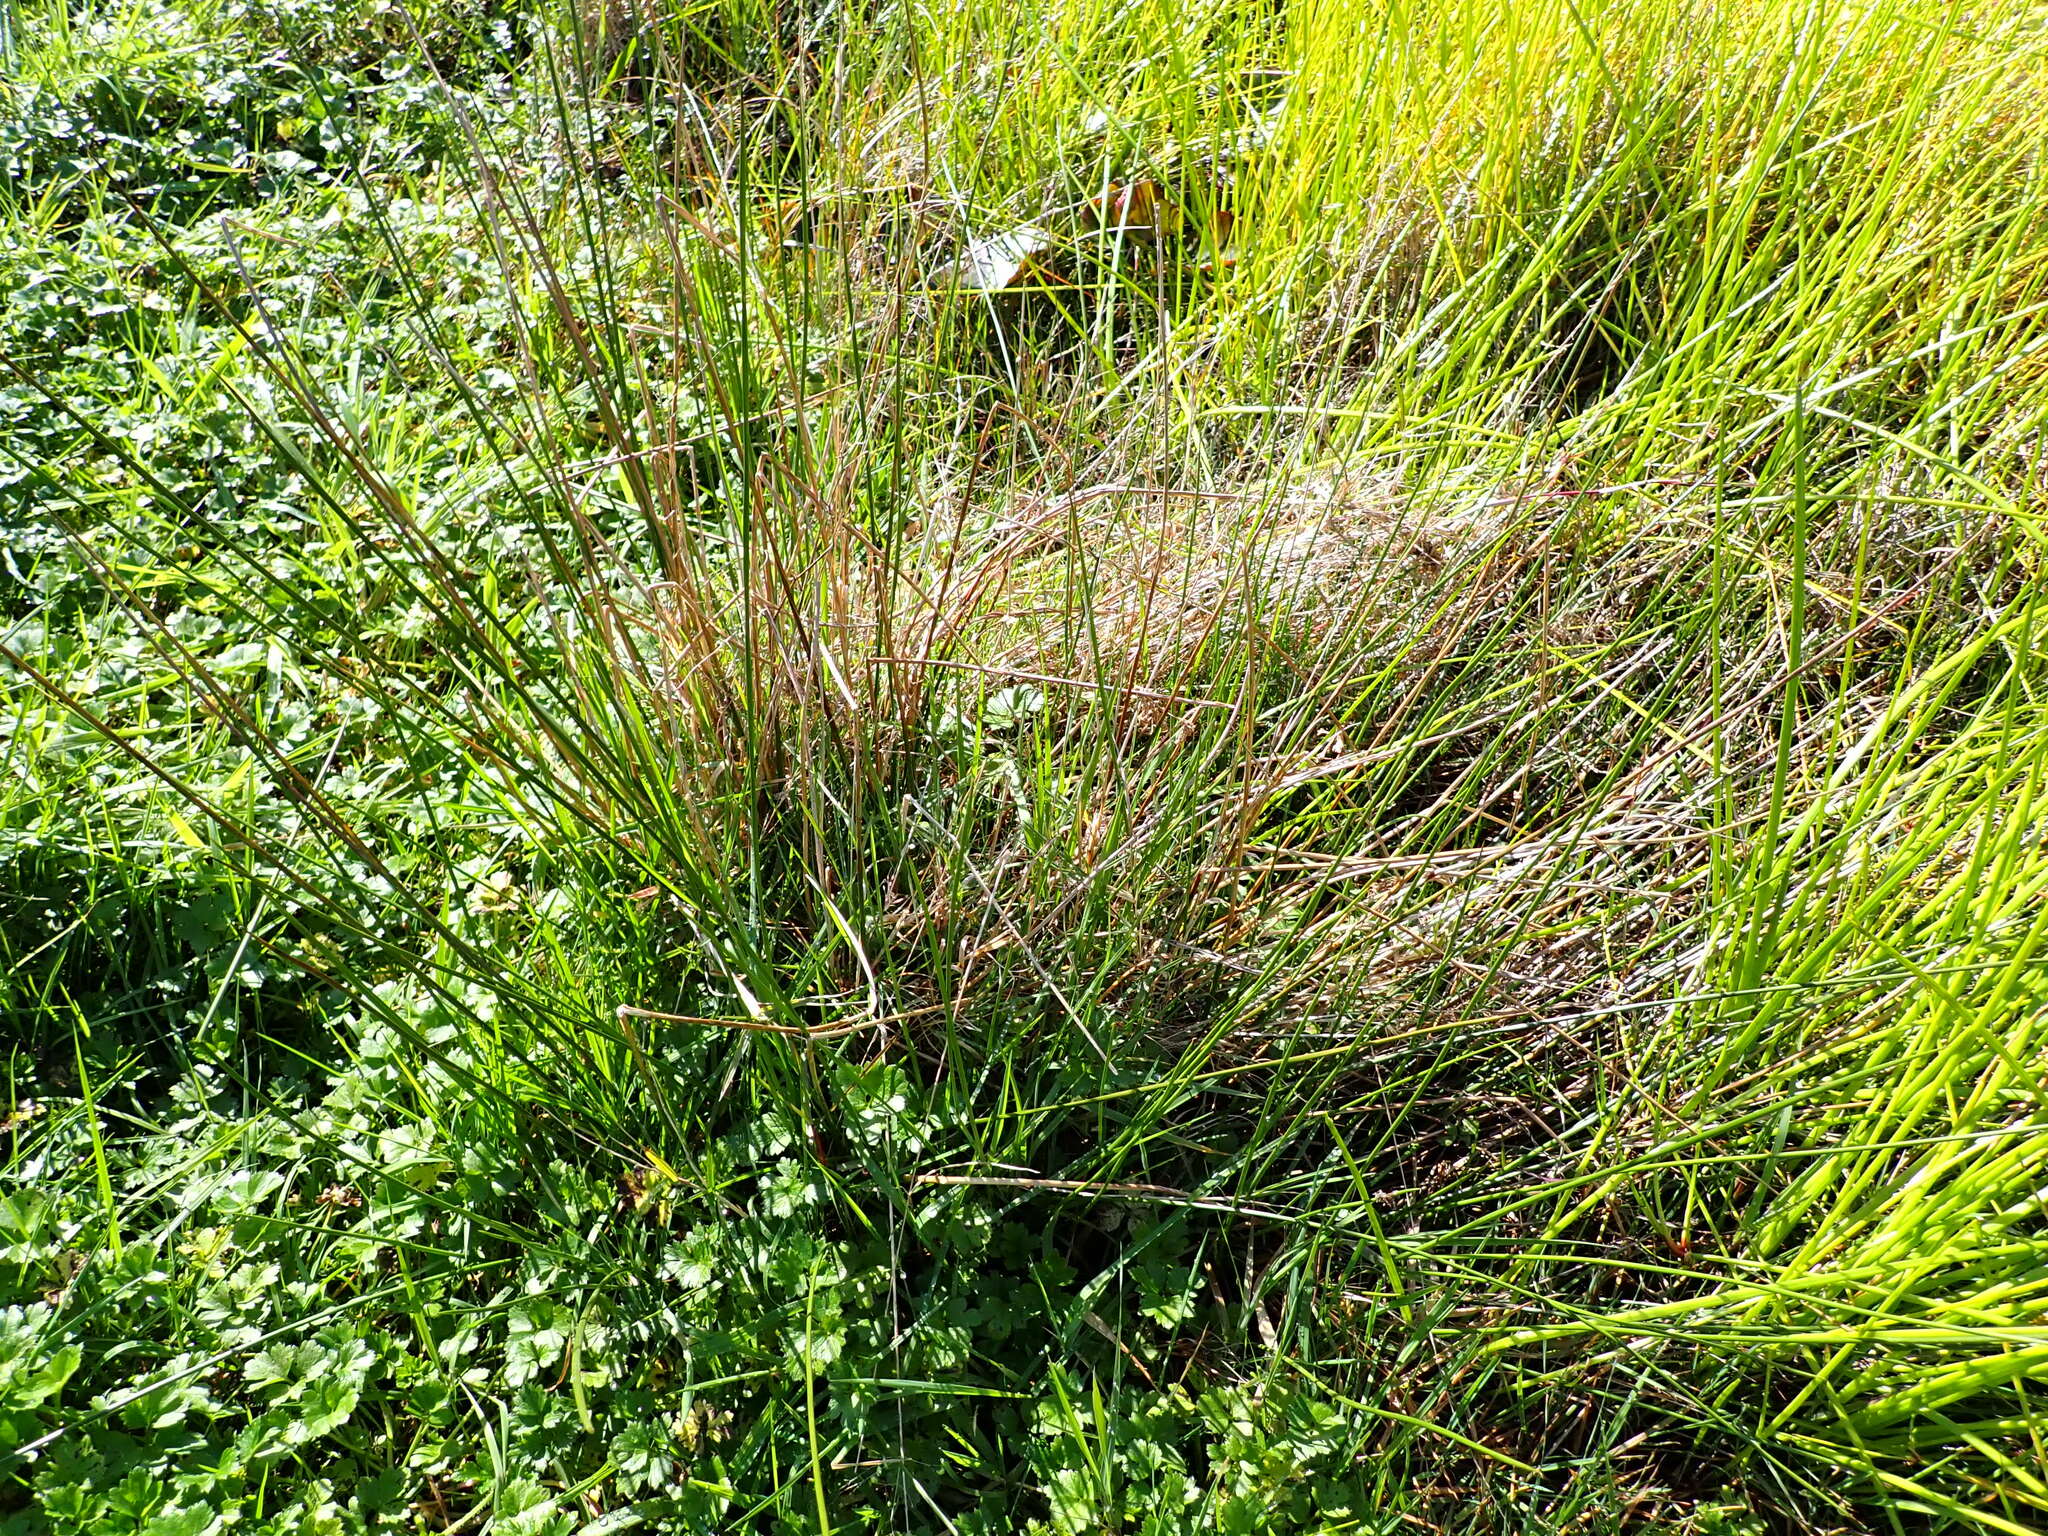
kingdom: Plantae
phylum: Tracheophyta
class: Liliopsida
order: Poales
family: Cyperaceae
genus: Ficinia
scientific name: Ficinia nodosa
